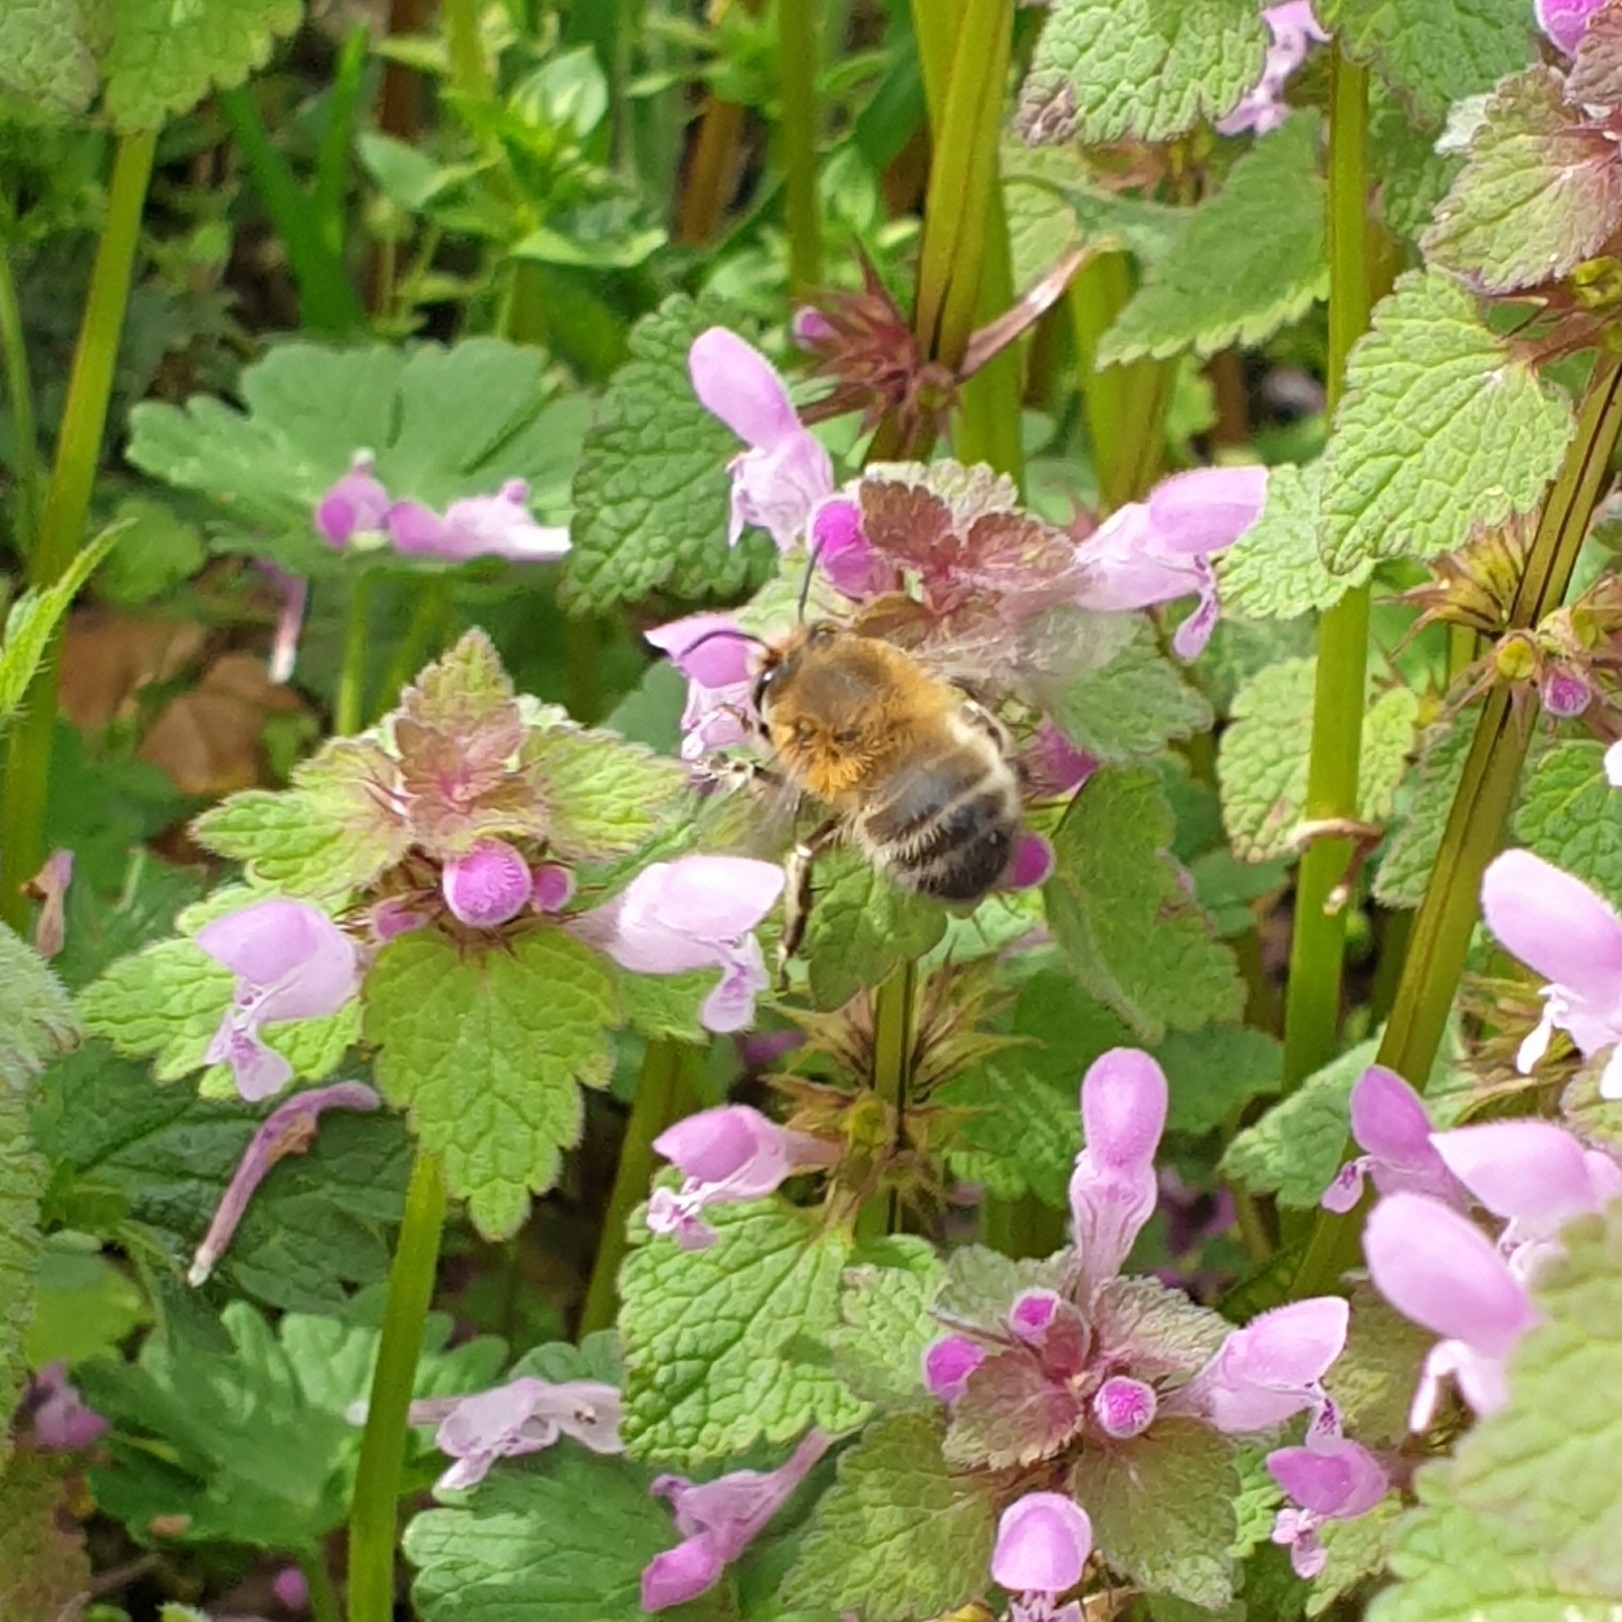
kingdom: Animalia
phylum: Arthropoda
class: Insecta
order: Hymenoptera
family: Apidae
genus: Anthophora
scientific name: Anthophora plumipes
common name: Hairy-footed flower bee
